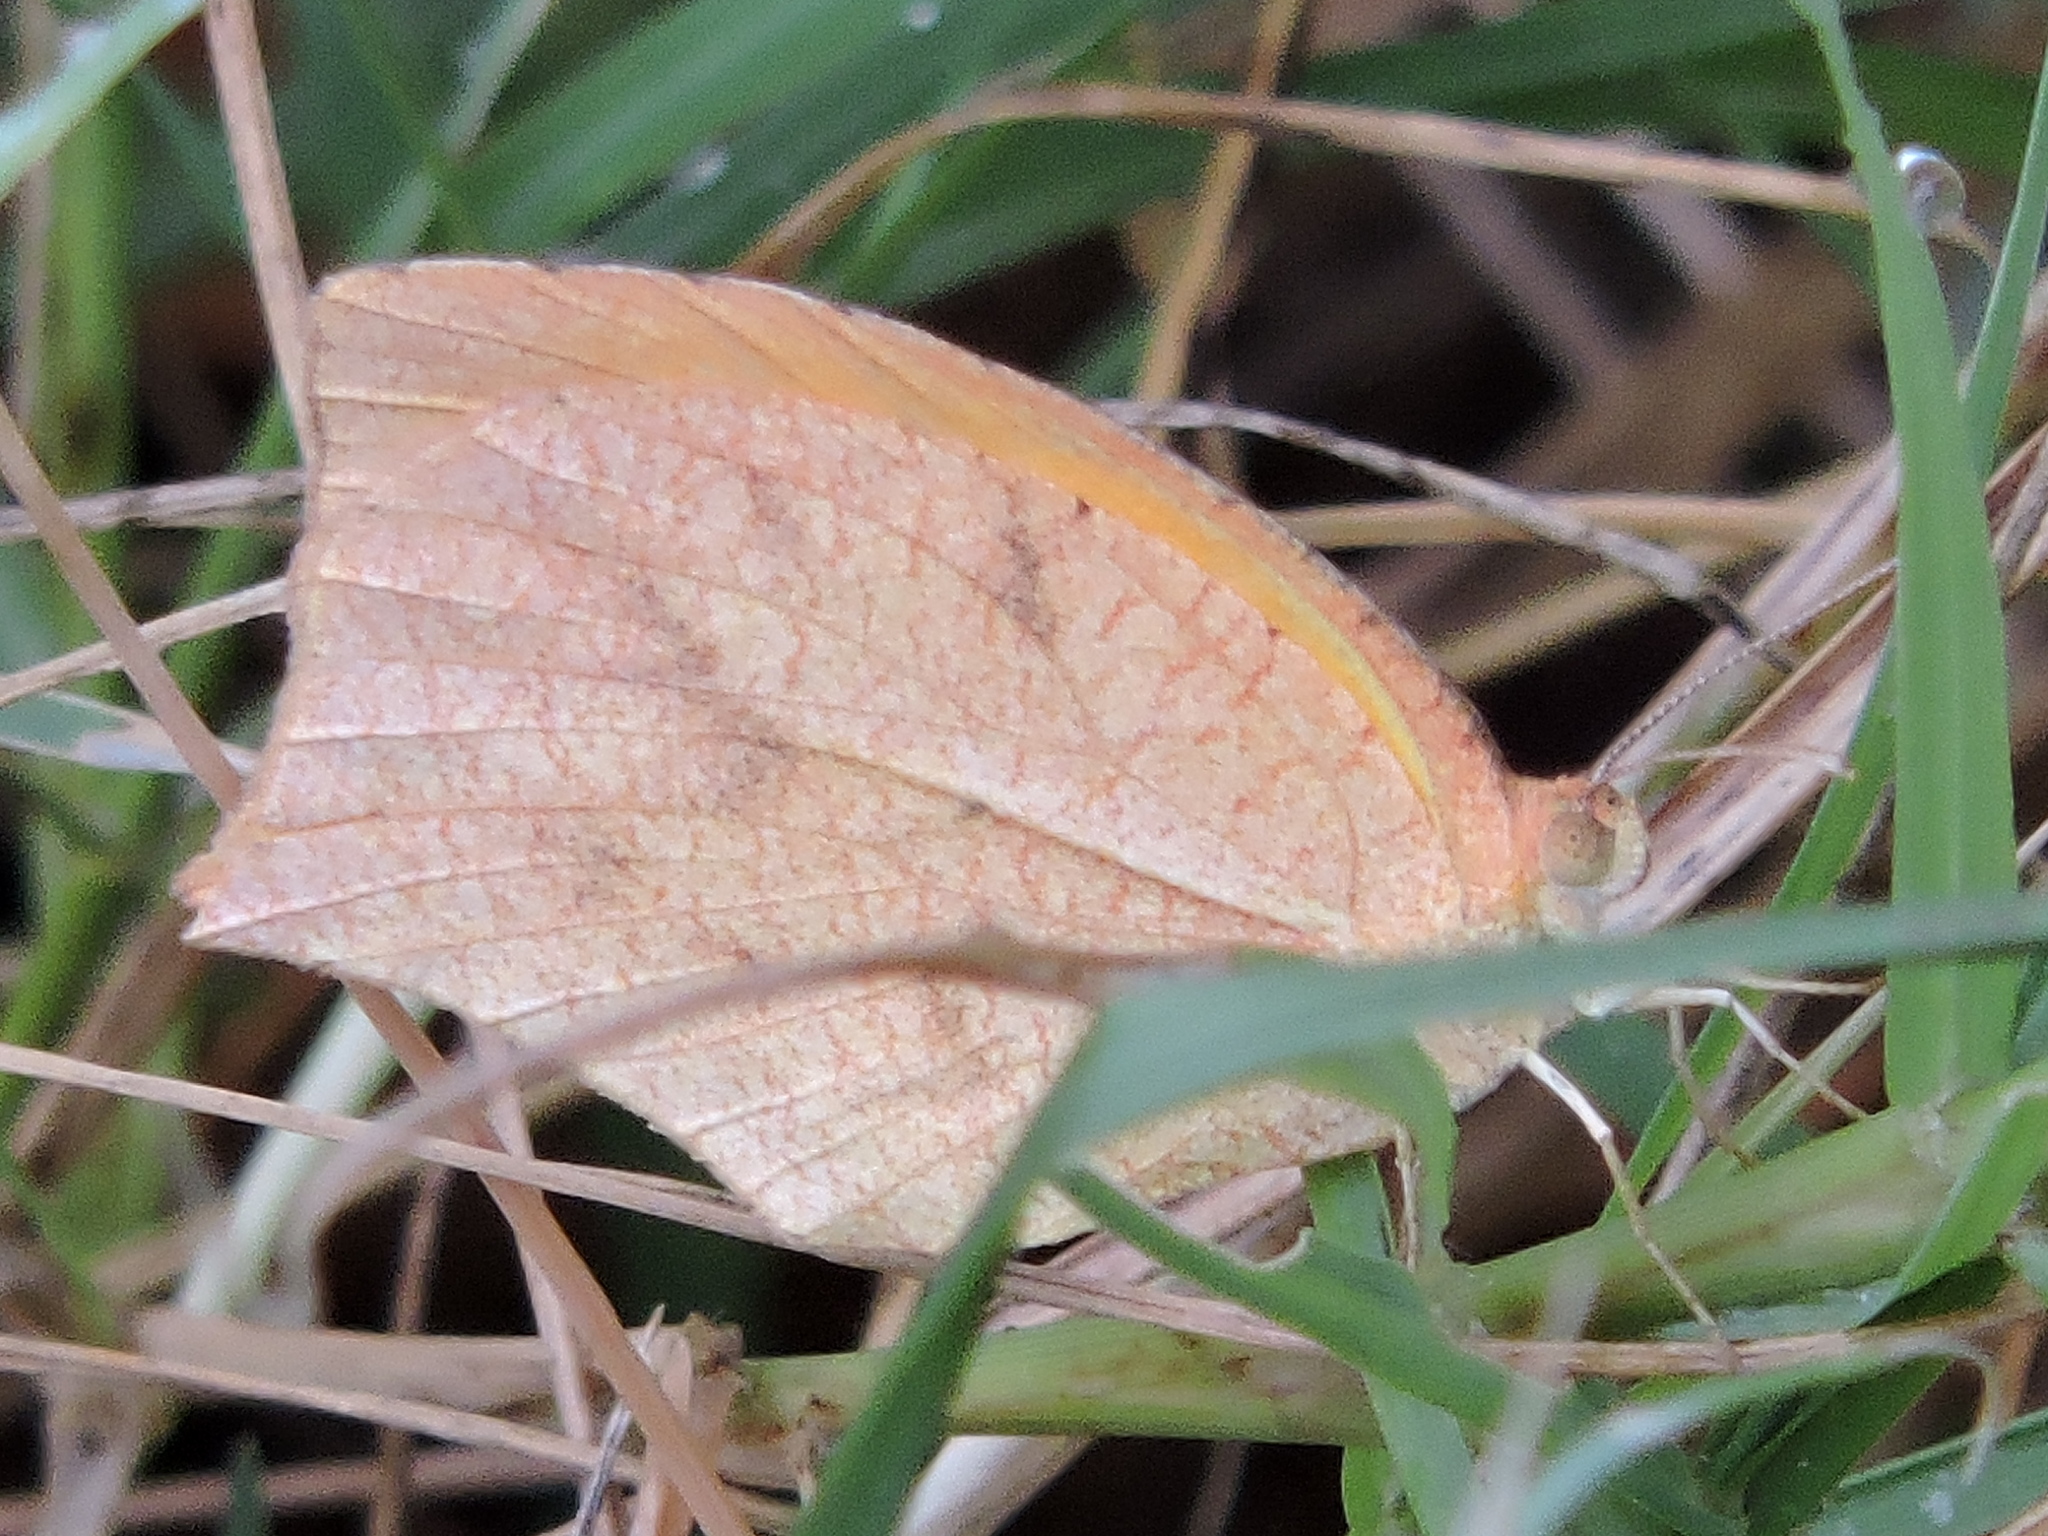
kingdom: Animalia
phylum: Arthropoda
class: Insecta
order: Lepidoptera
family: Pieridae
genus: Pyrisitia
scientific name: Pyrisitia proterpia
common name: Tailed orange
